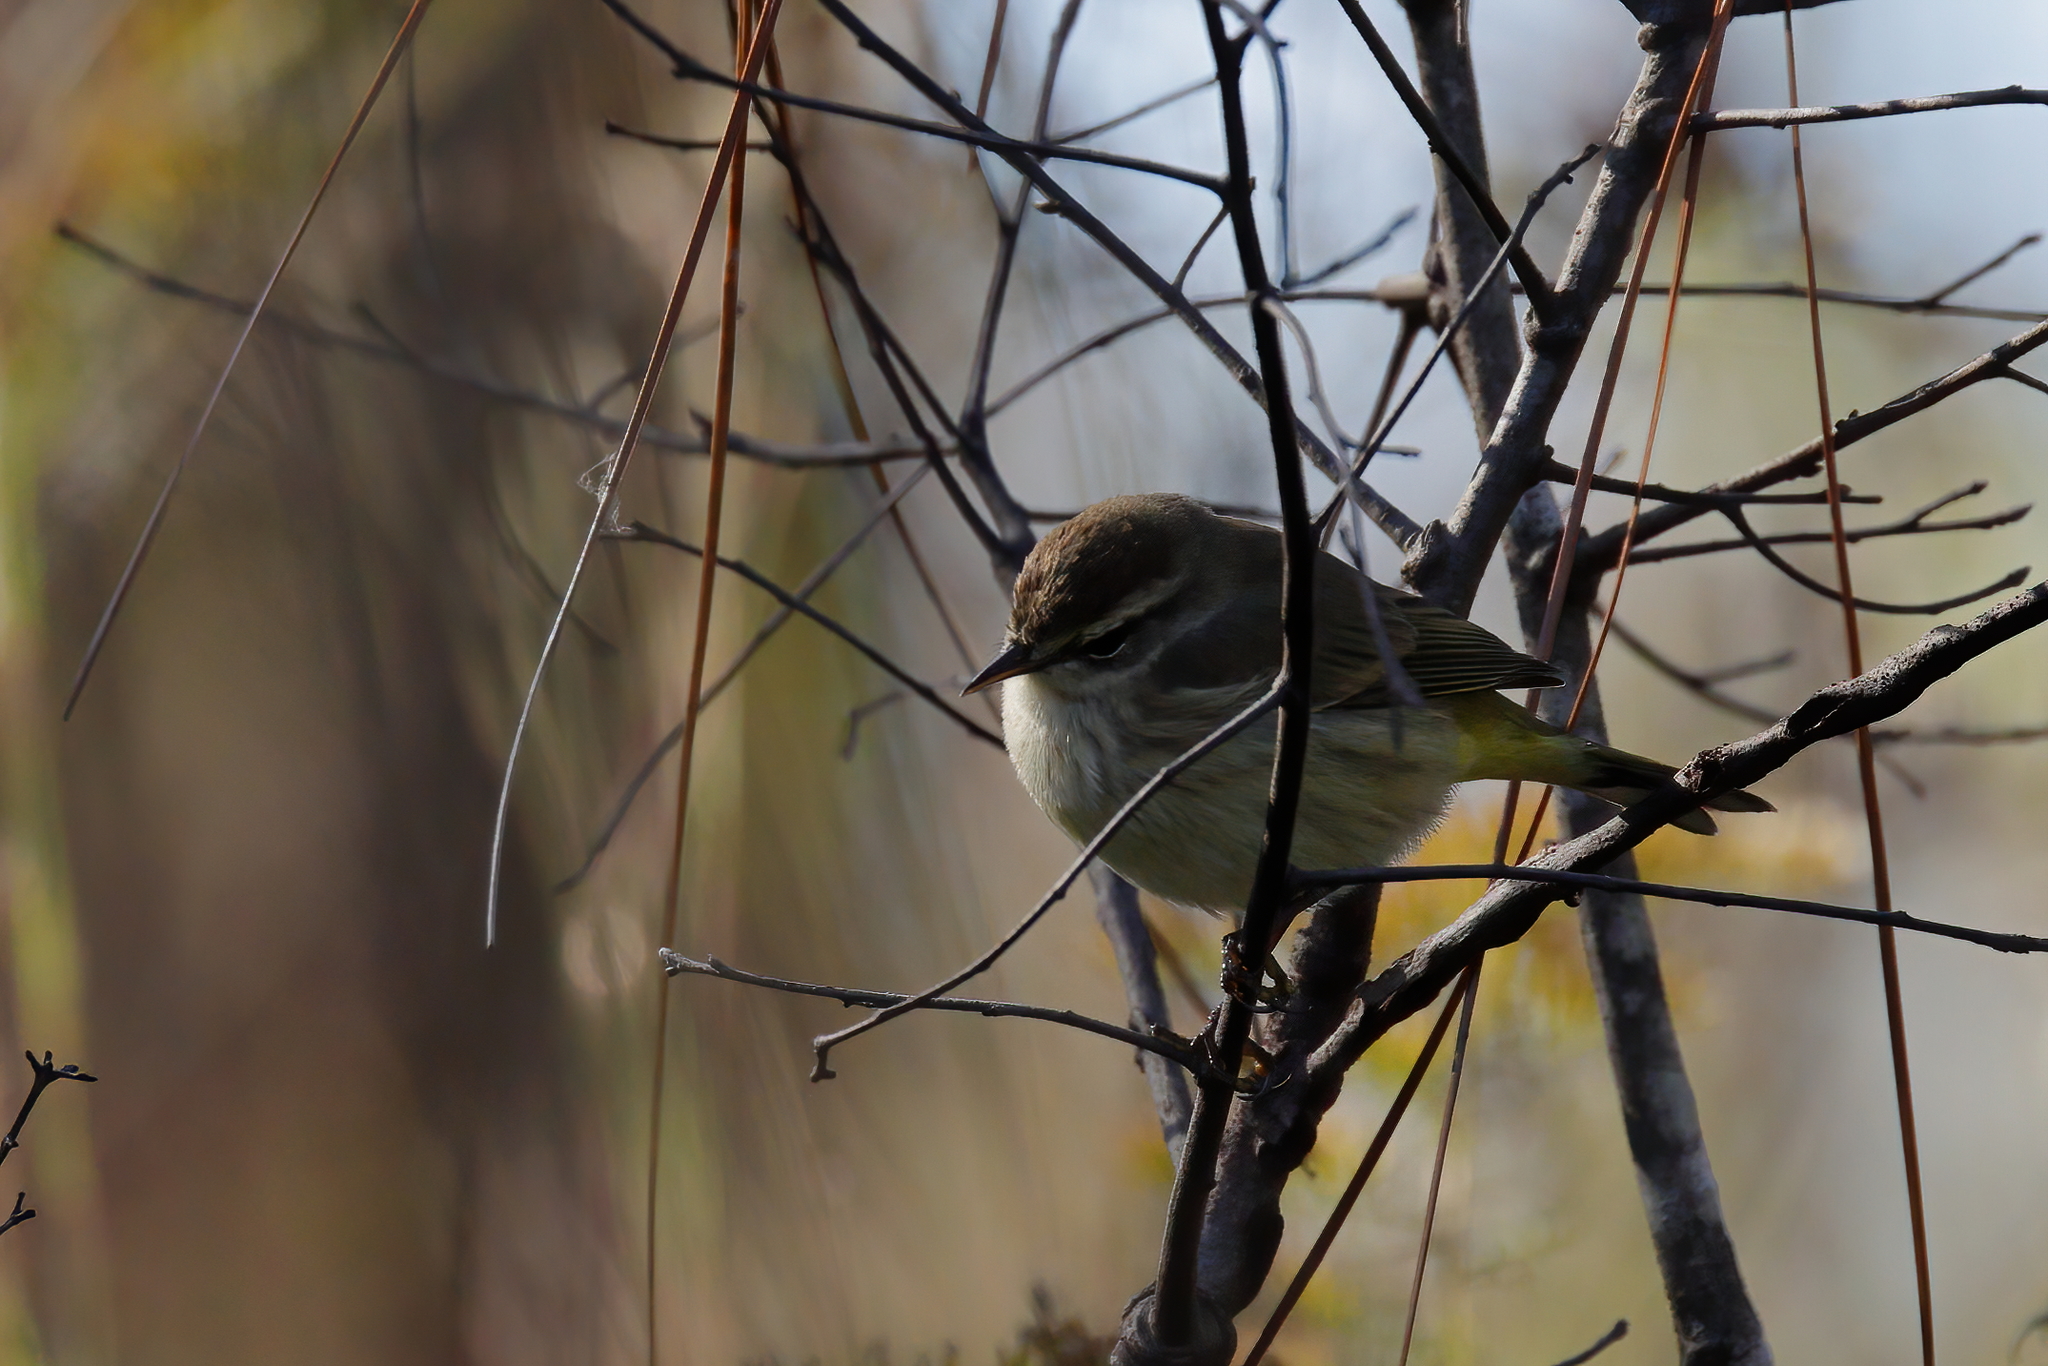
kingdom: Animalia
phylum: Chordata
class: Aves
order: Passeriformes
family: Parulidae
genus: Setophaga
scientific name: Setophaga palmarum
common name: Palm warbler
